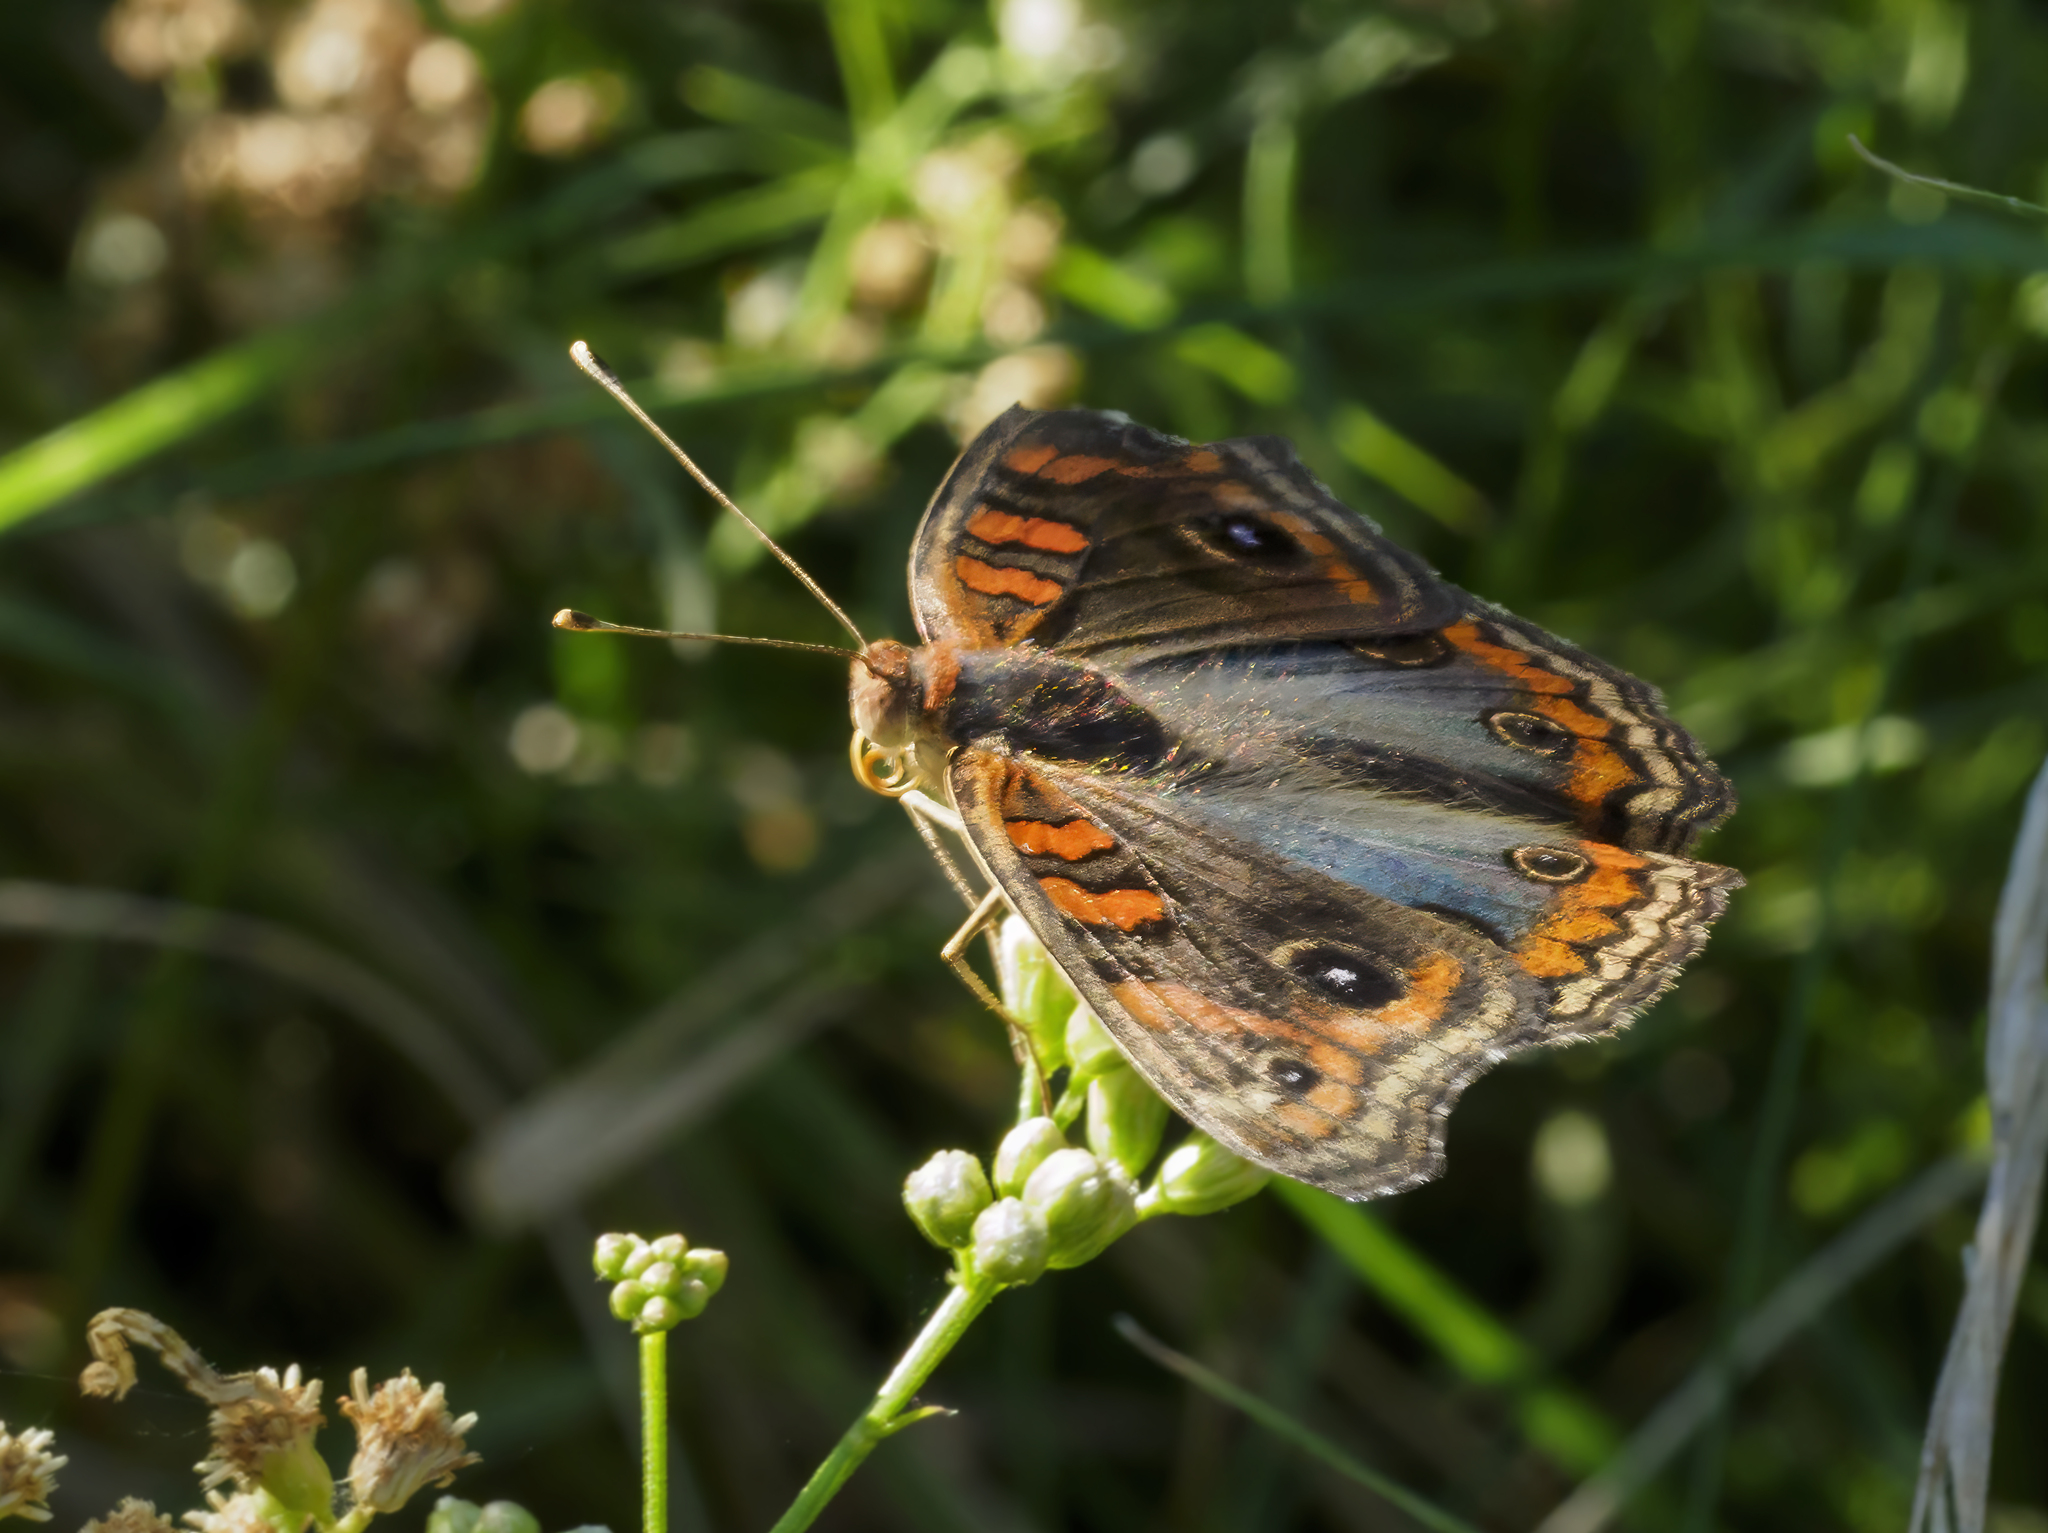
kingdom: Animalia
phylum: Arthropoda
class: Insecta
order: Lepidoptera
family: Nymphalidae
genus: Junonia
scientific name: Junonia lavinia
